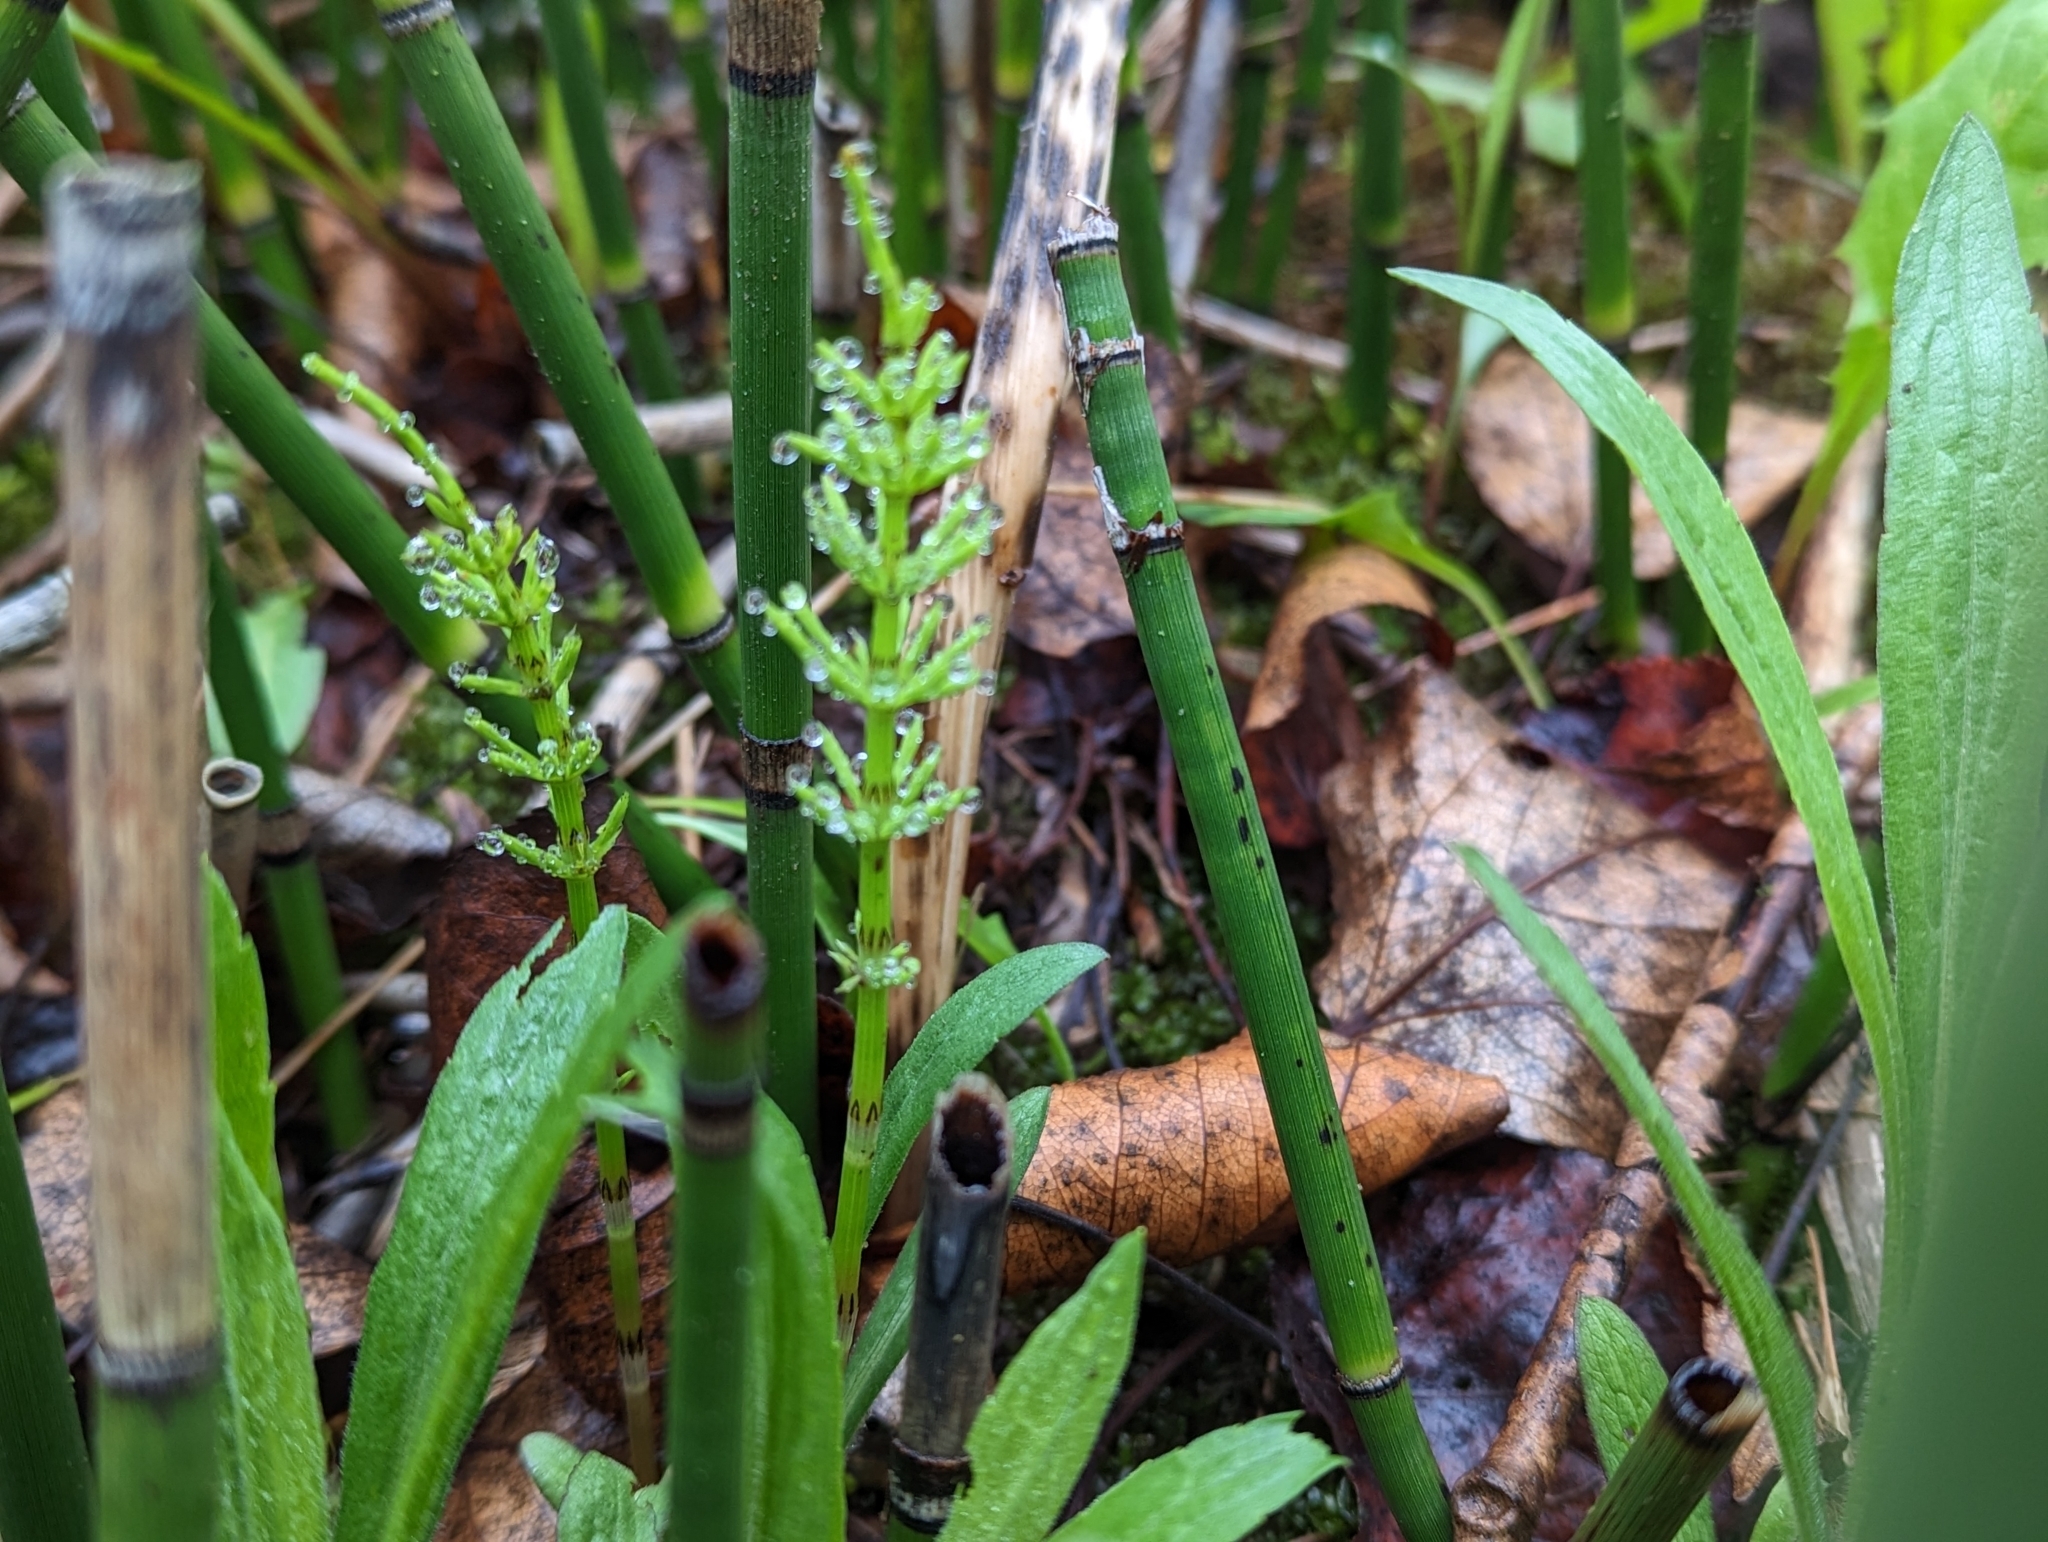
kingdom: Plantae
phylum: Tracheophyta
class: Polypodiopsida
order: Equisetales
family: Equisetaceae
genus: Equisetum
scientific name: Equisetum arvense
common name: Field horsetail
